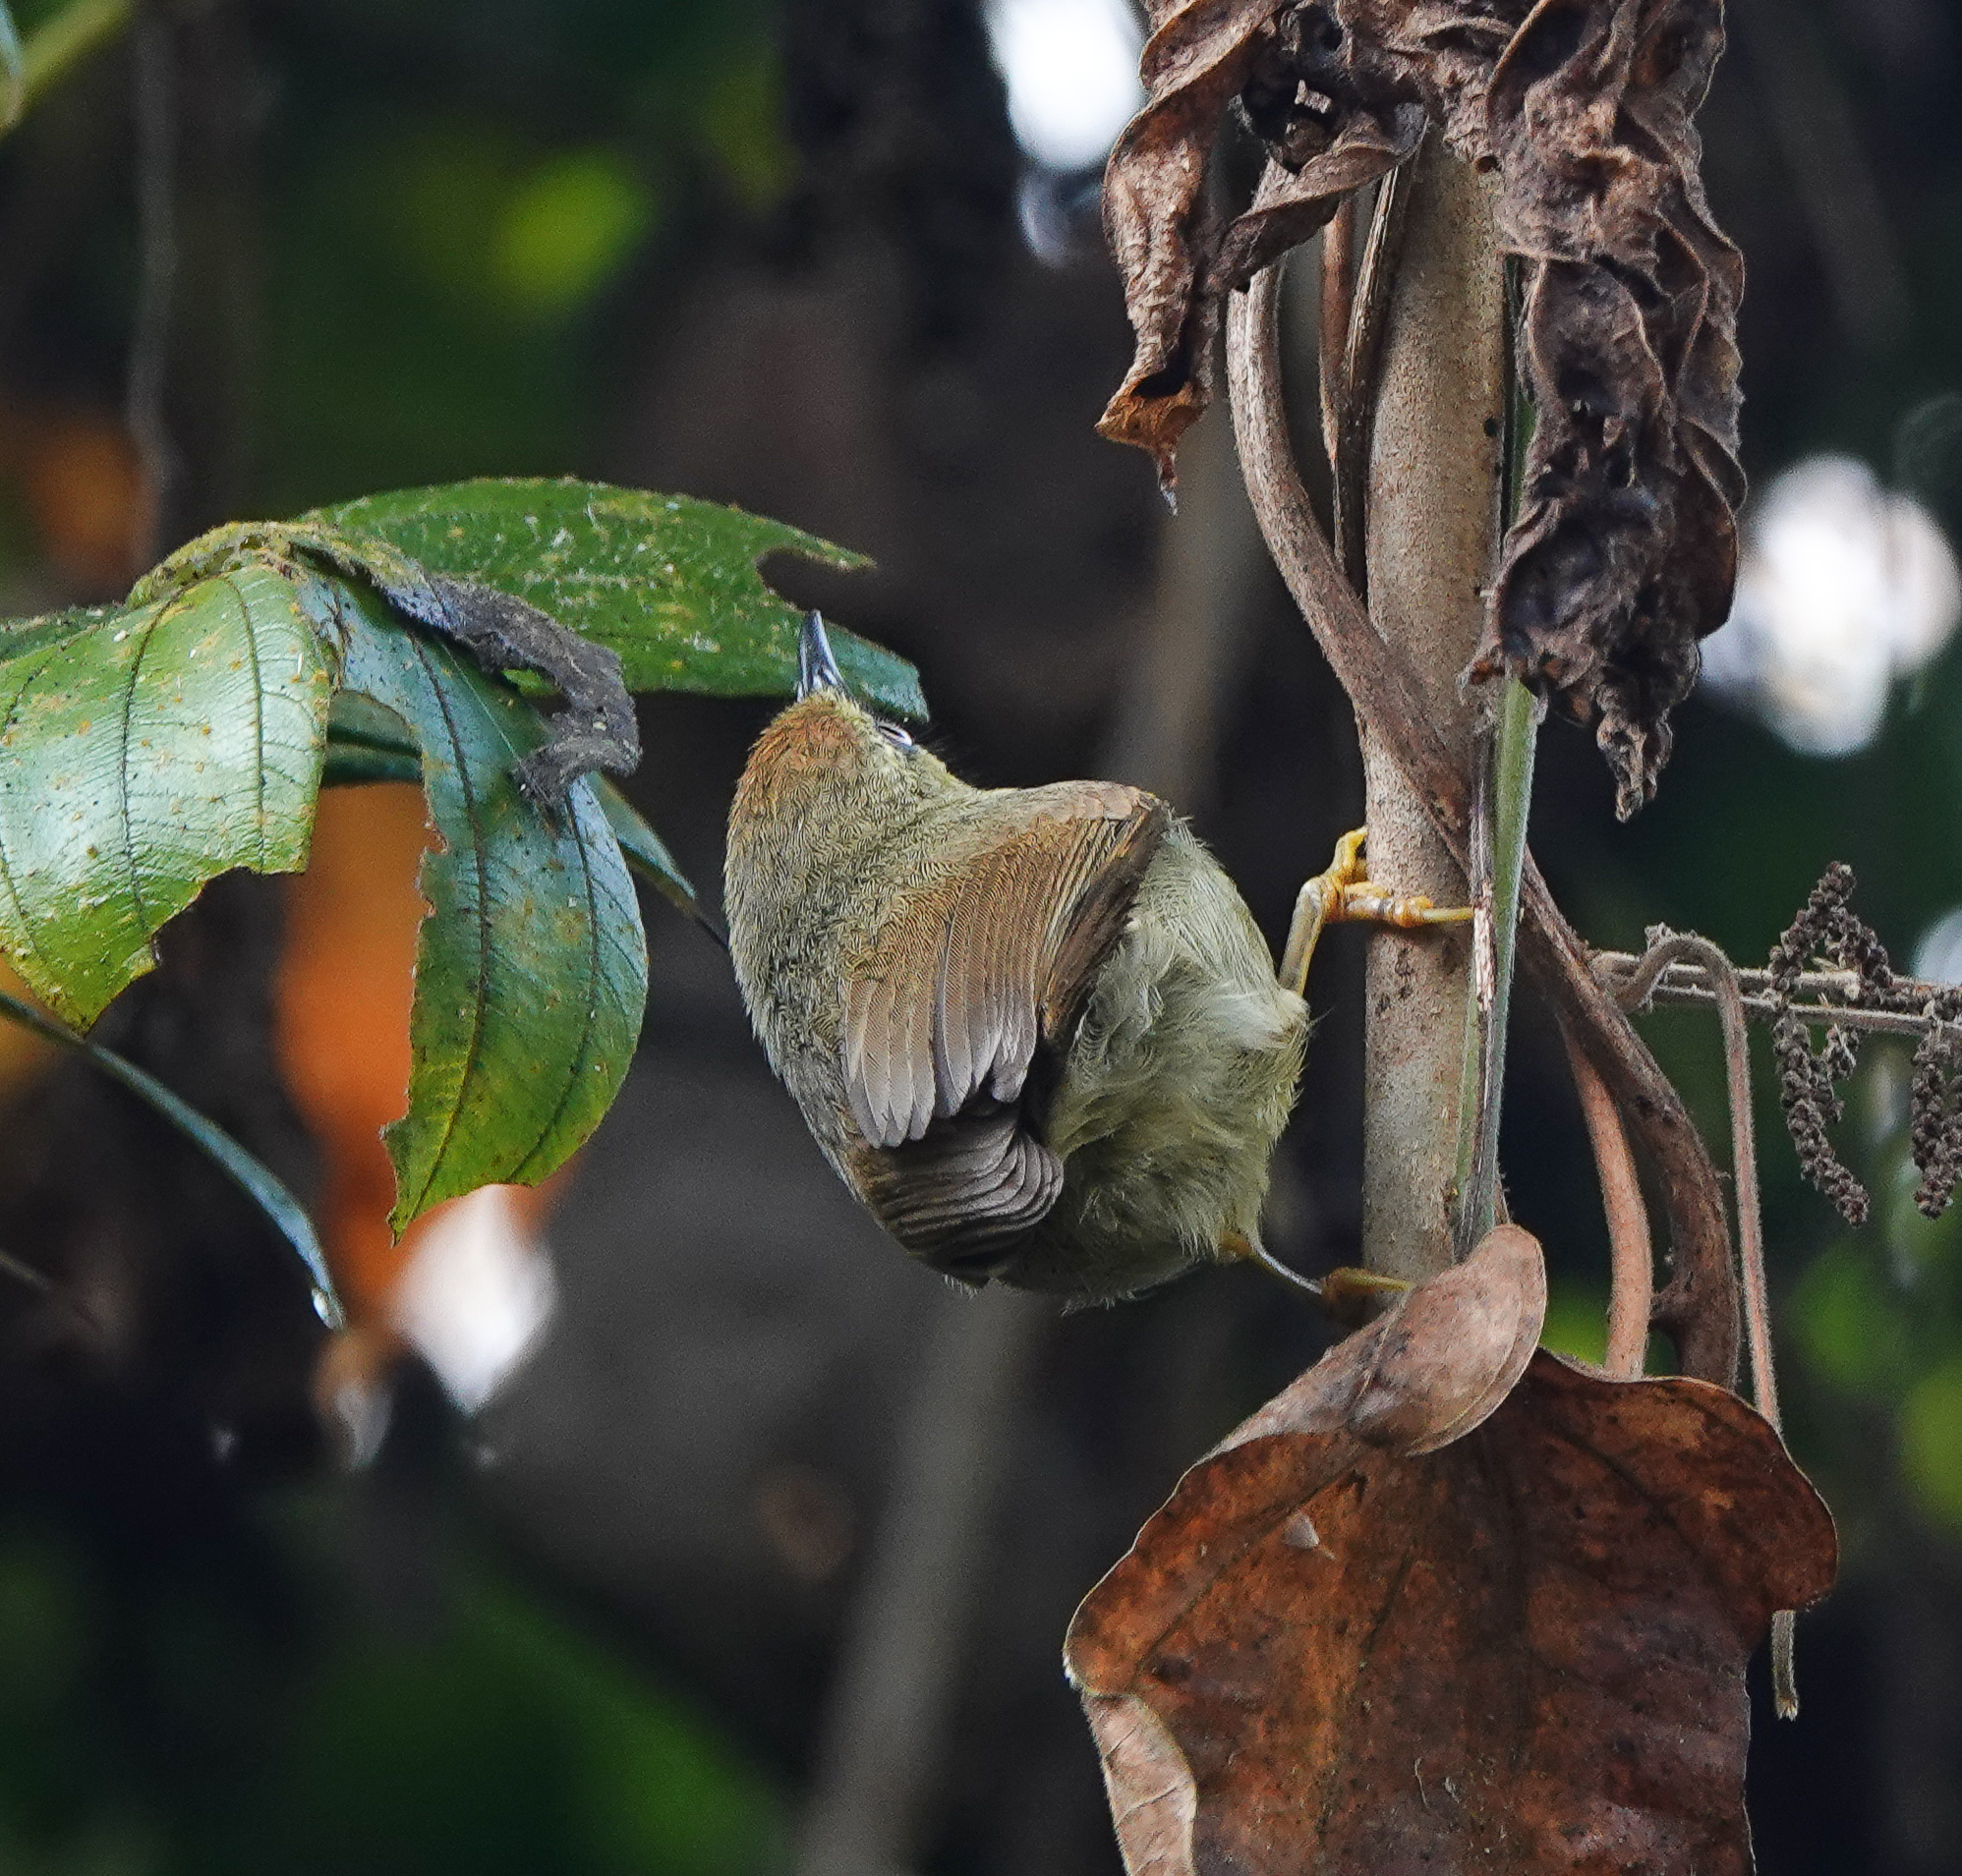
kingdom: Animalia
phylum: Chordata
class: Aves
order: Passeriformes
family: Timaliidae
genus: Macronus
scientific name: Macronus gularis
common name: Striped tit-babbler
